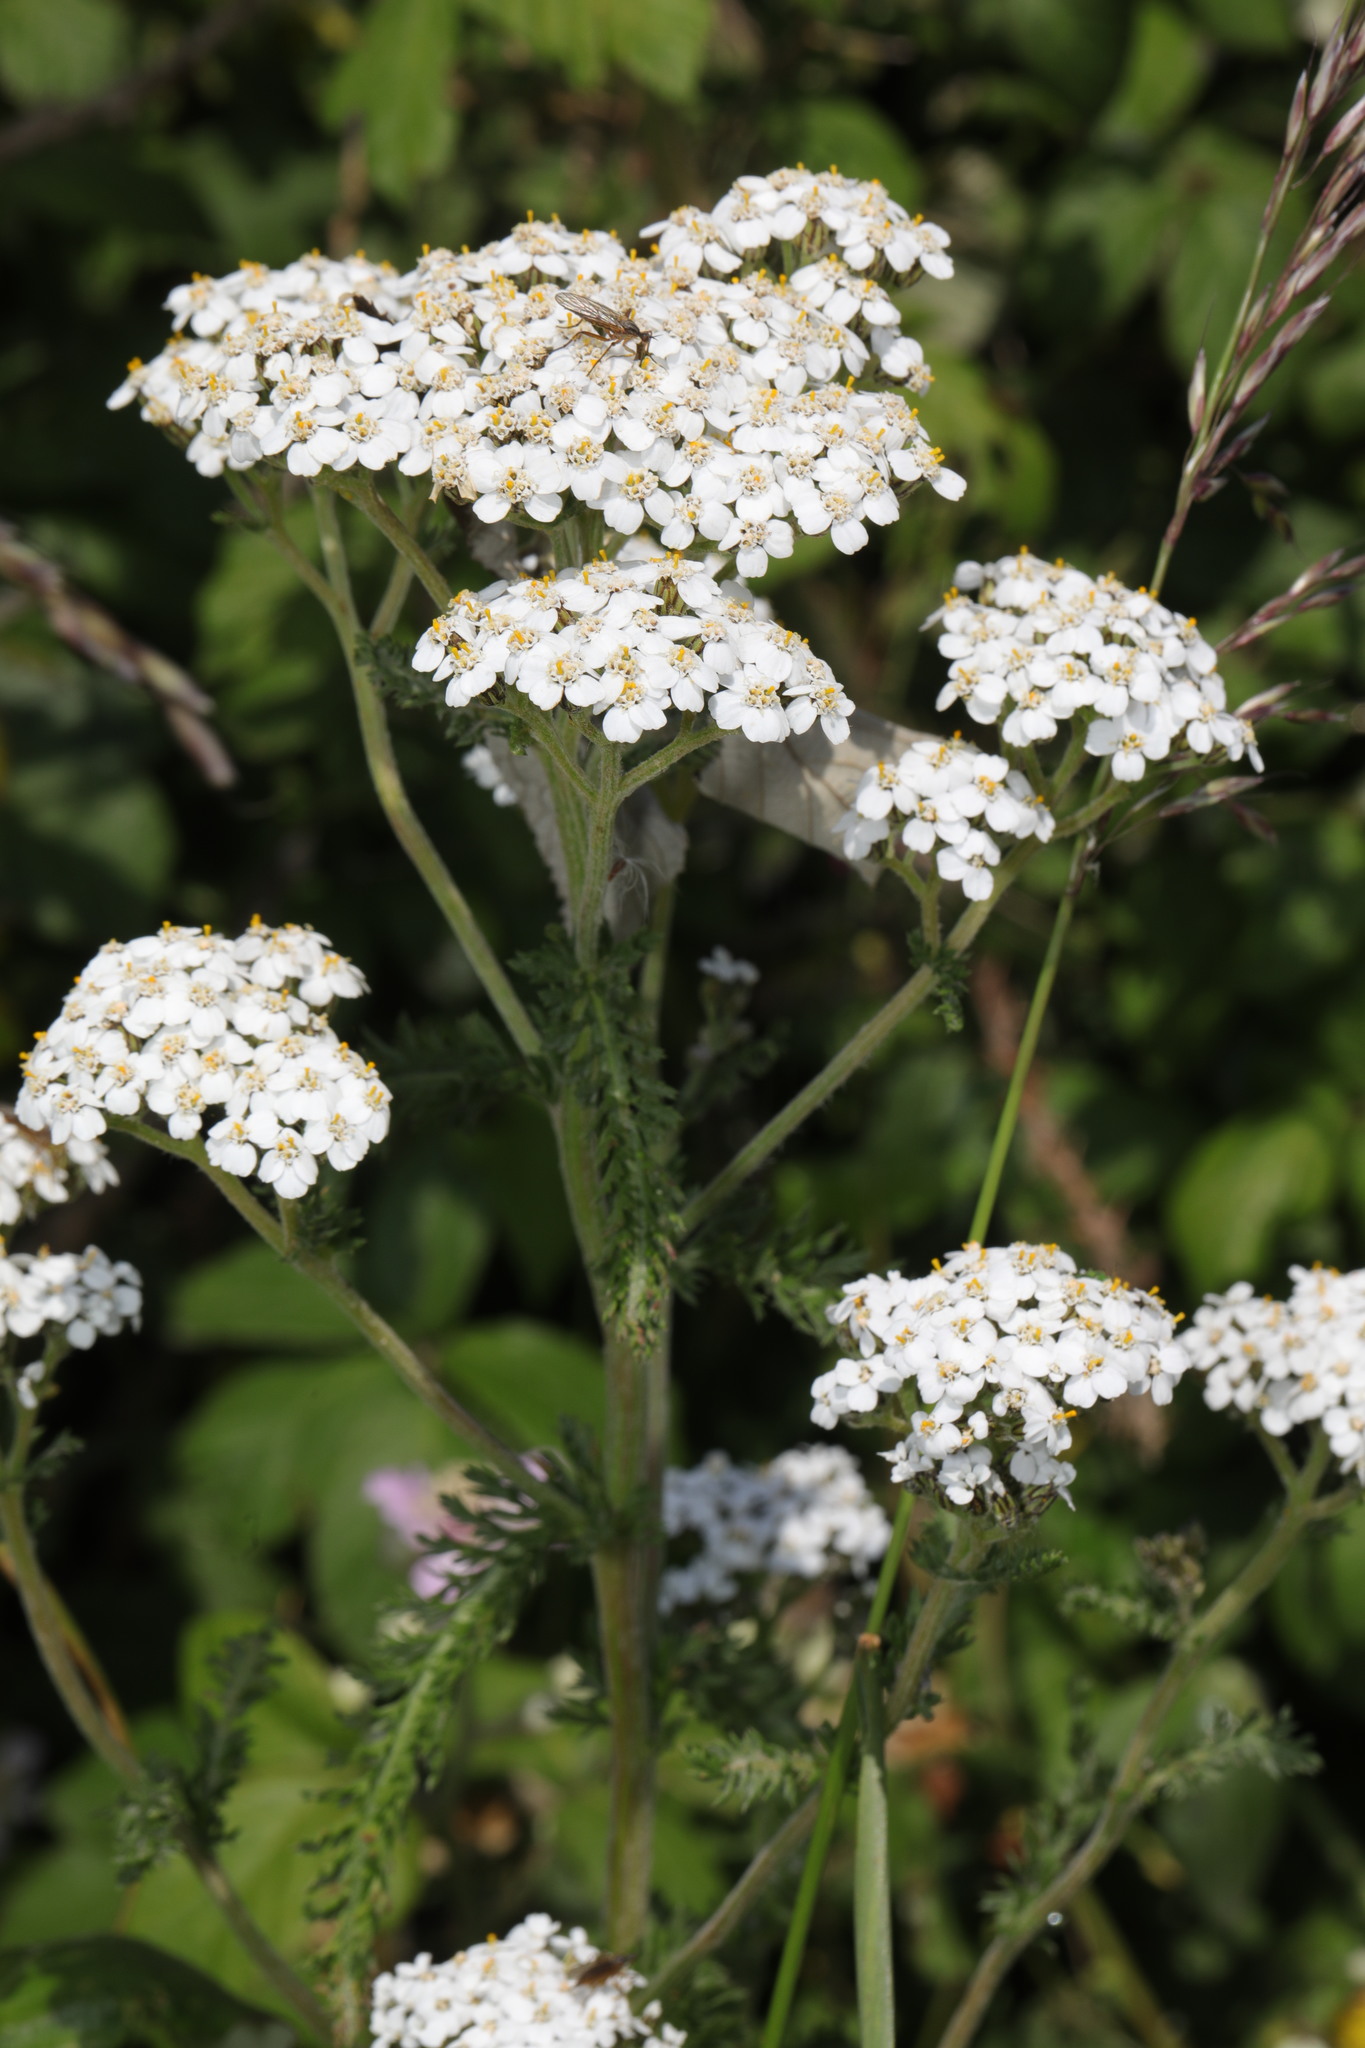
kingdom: Plantae
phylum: Tracheophyta
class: Magnoliopsida
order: Asterales
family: Asteraceae
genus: Achillea
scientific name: Achillea millefolium
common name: Yarrow
